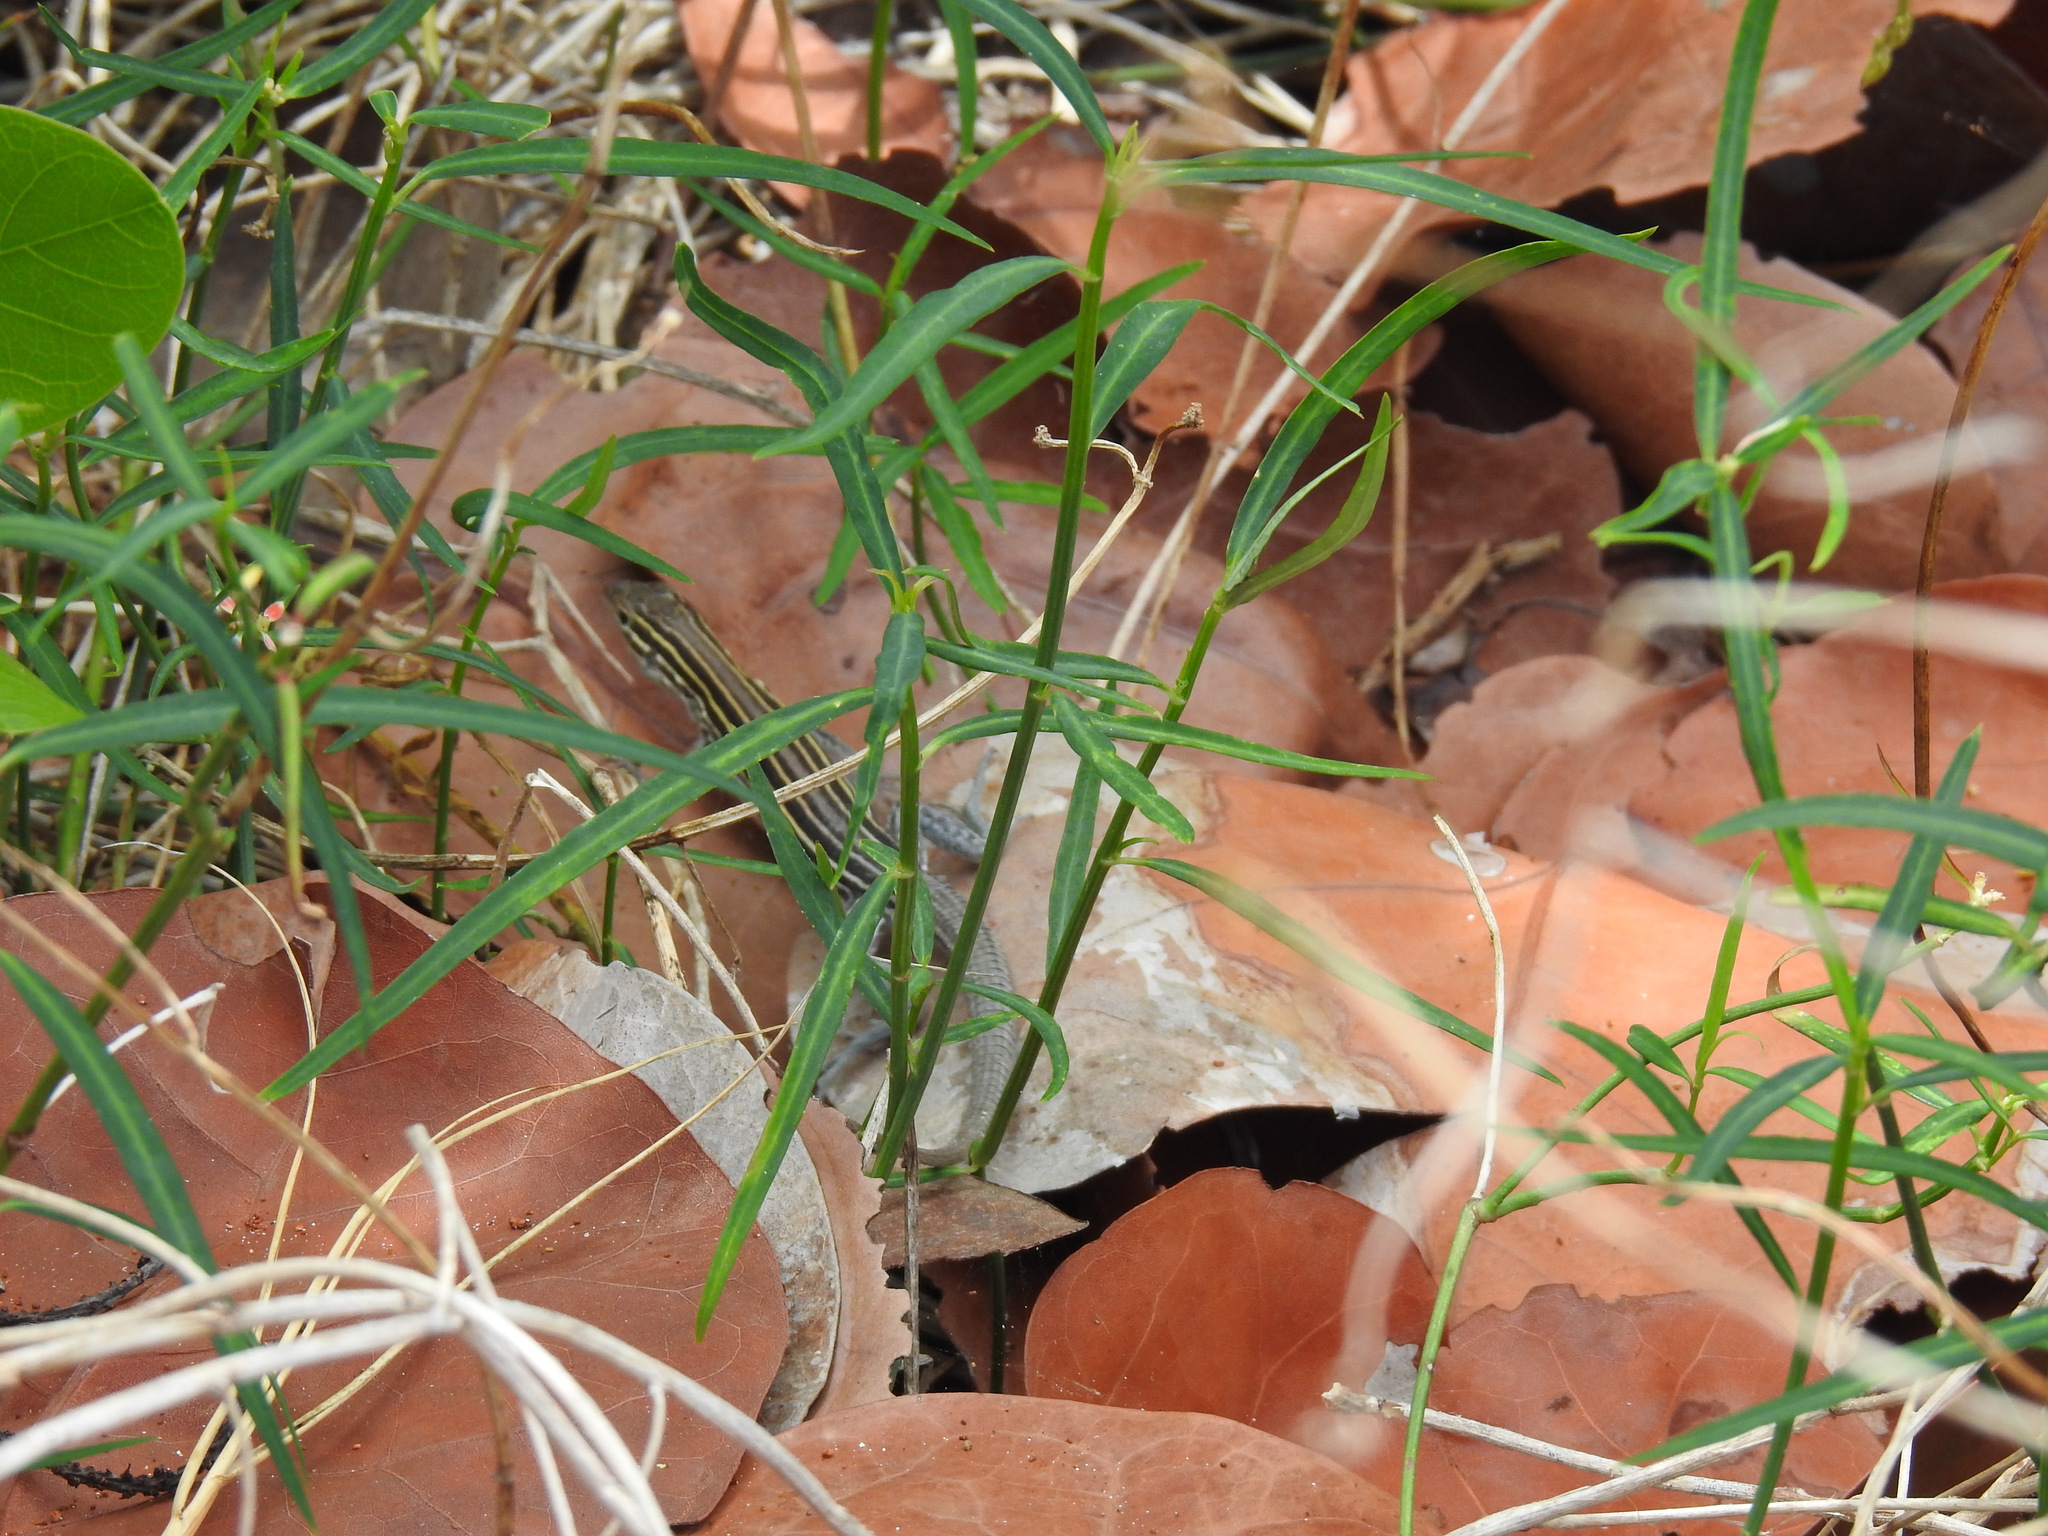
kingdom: Animalia
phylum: Chordata
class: Squamata
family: Teiidae
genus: Aspidoscelis
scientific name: Aspidoscelis sexlineatus
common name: Six-lined racerunner
